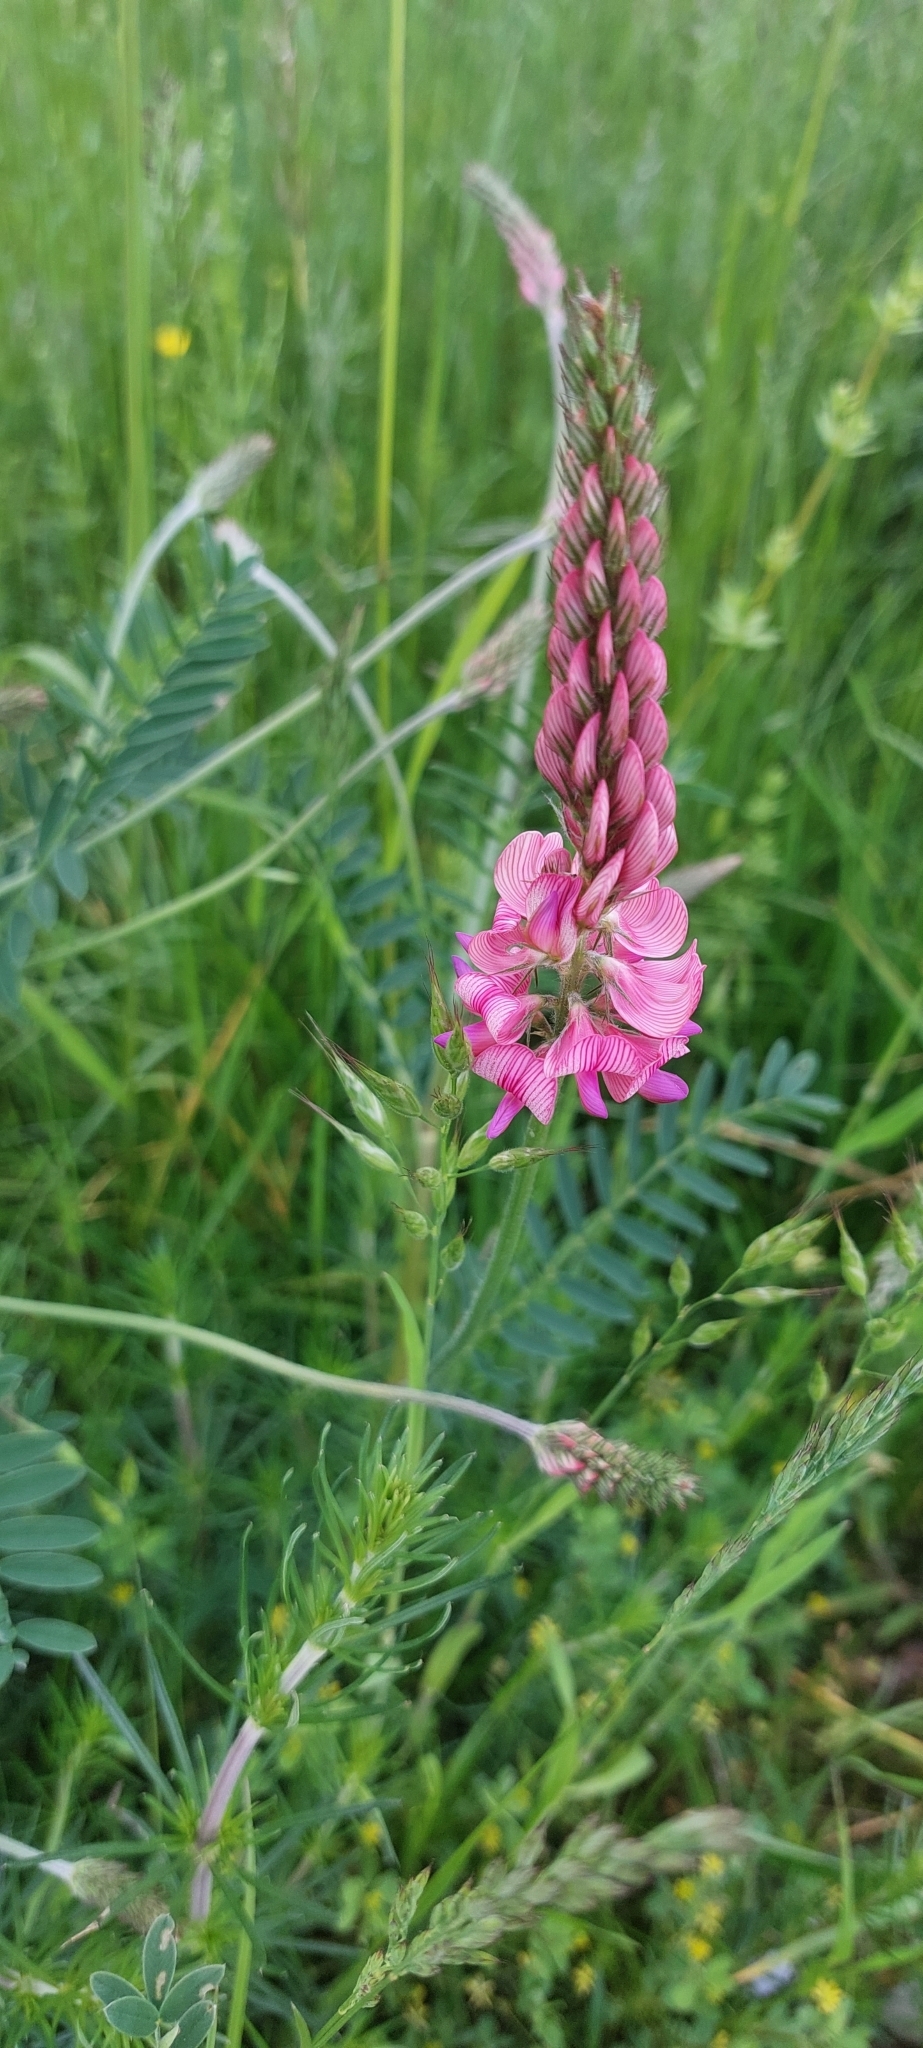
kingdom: Plantae
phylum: Tracheophyta
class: Magnoliopsida
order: Fabales
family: Fabaceae
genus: Onobrychis
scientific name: Onobrychis viciifolia
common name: Sainfoin
